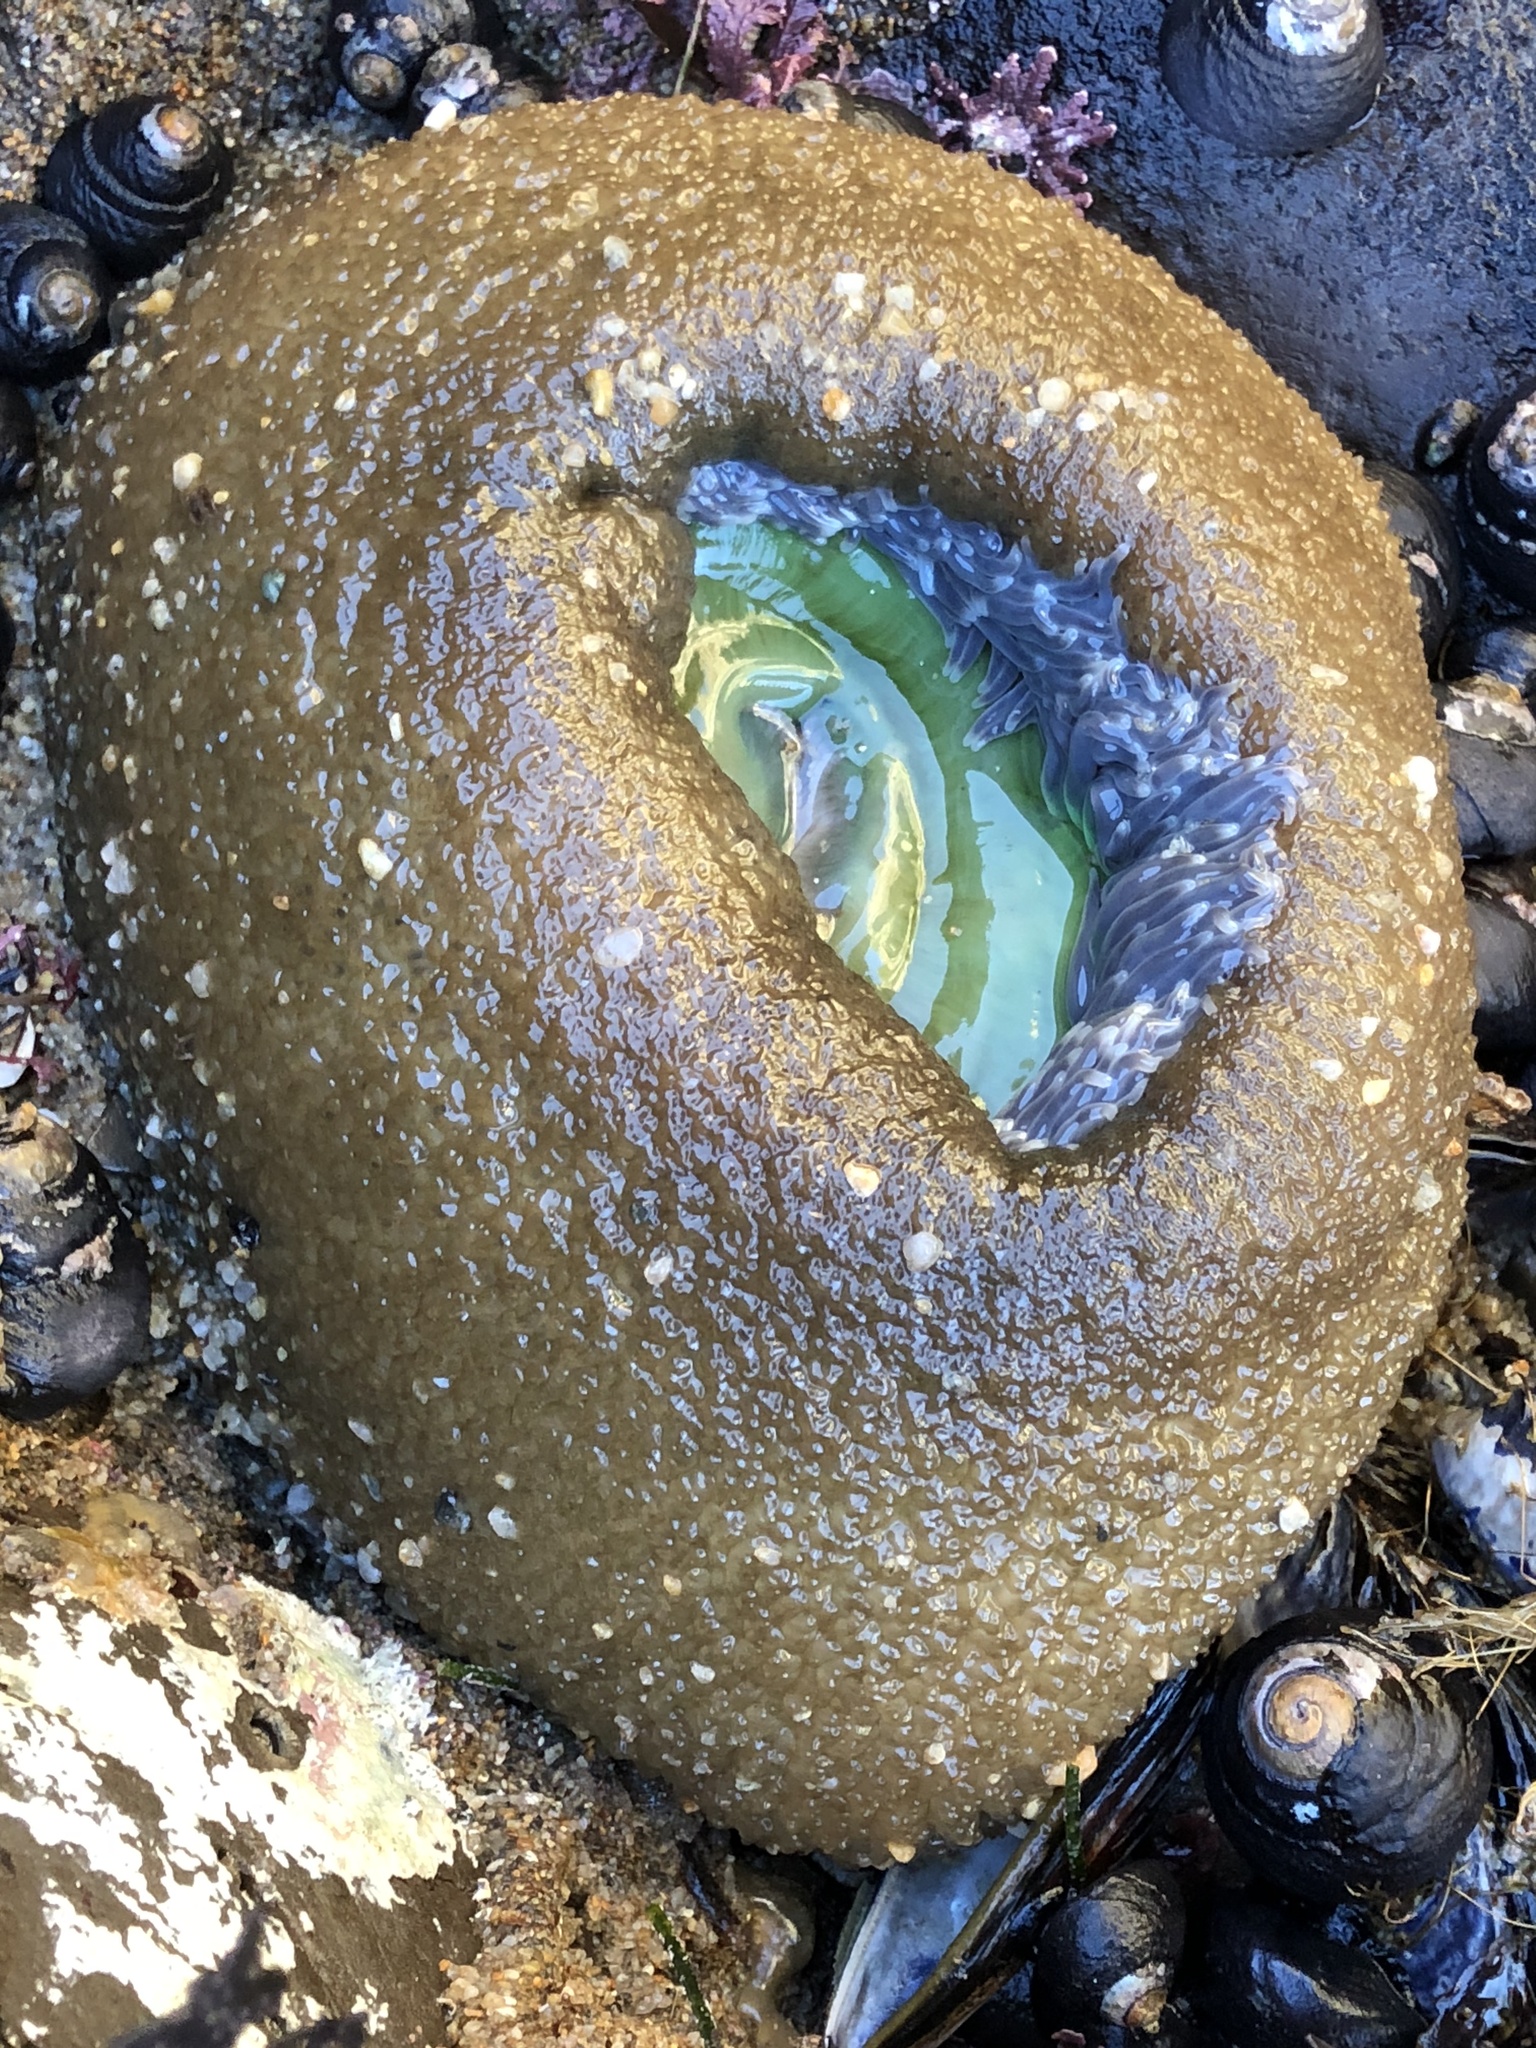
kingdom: Animalia
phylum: Cnidaria
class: Anthozoa
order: Actiniaria
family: Actiniidae
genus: Anthopleura
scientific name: Anthopleura xanthogrammica
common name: Giant green anemone
